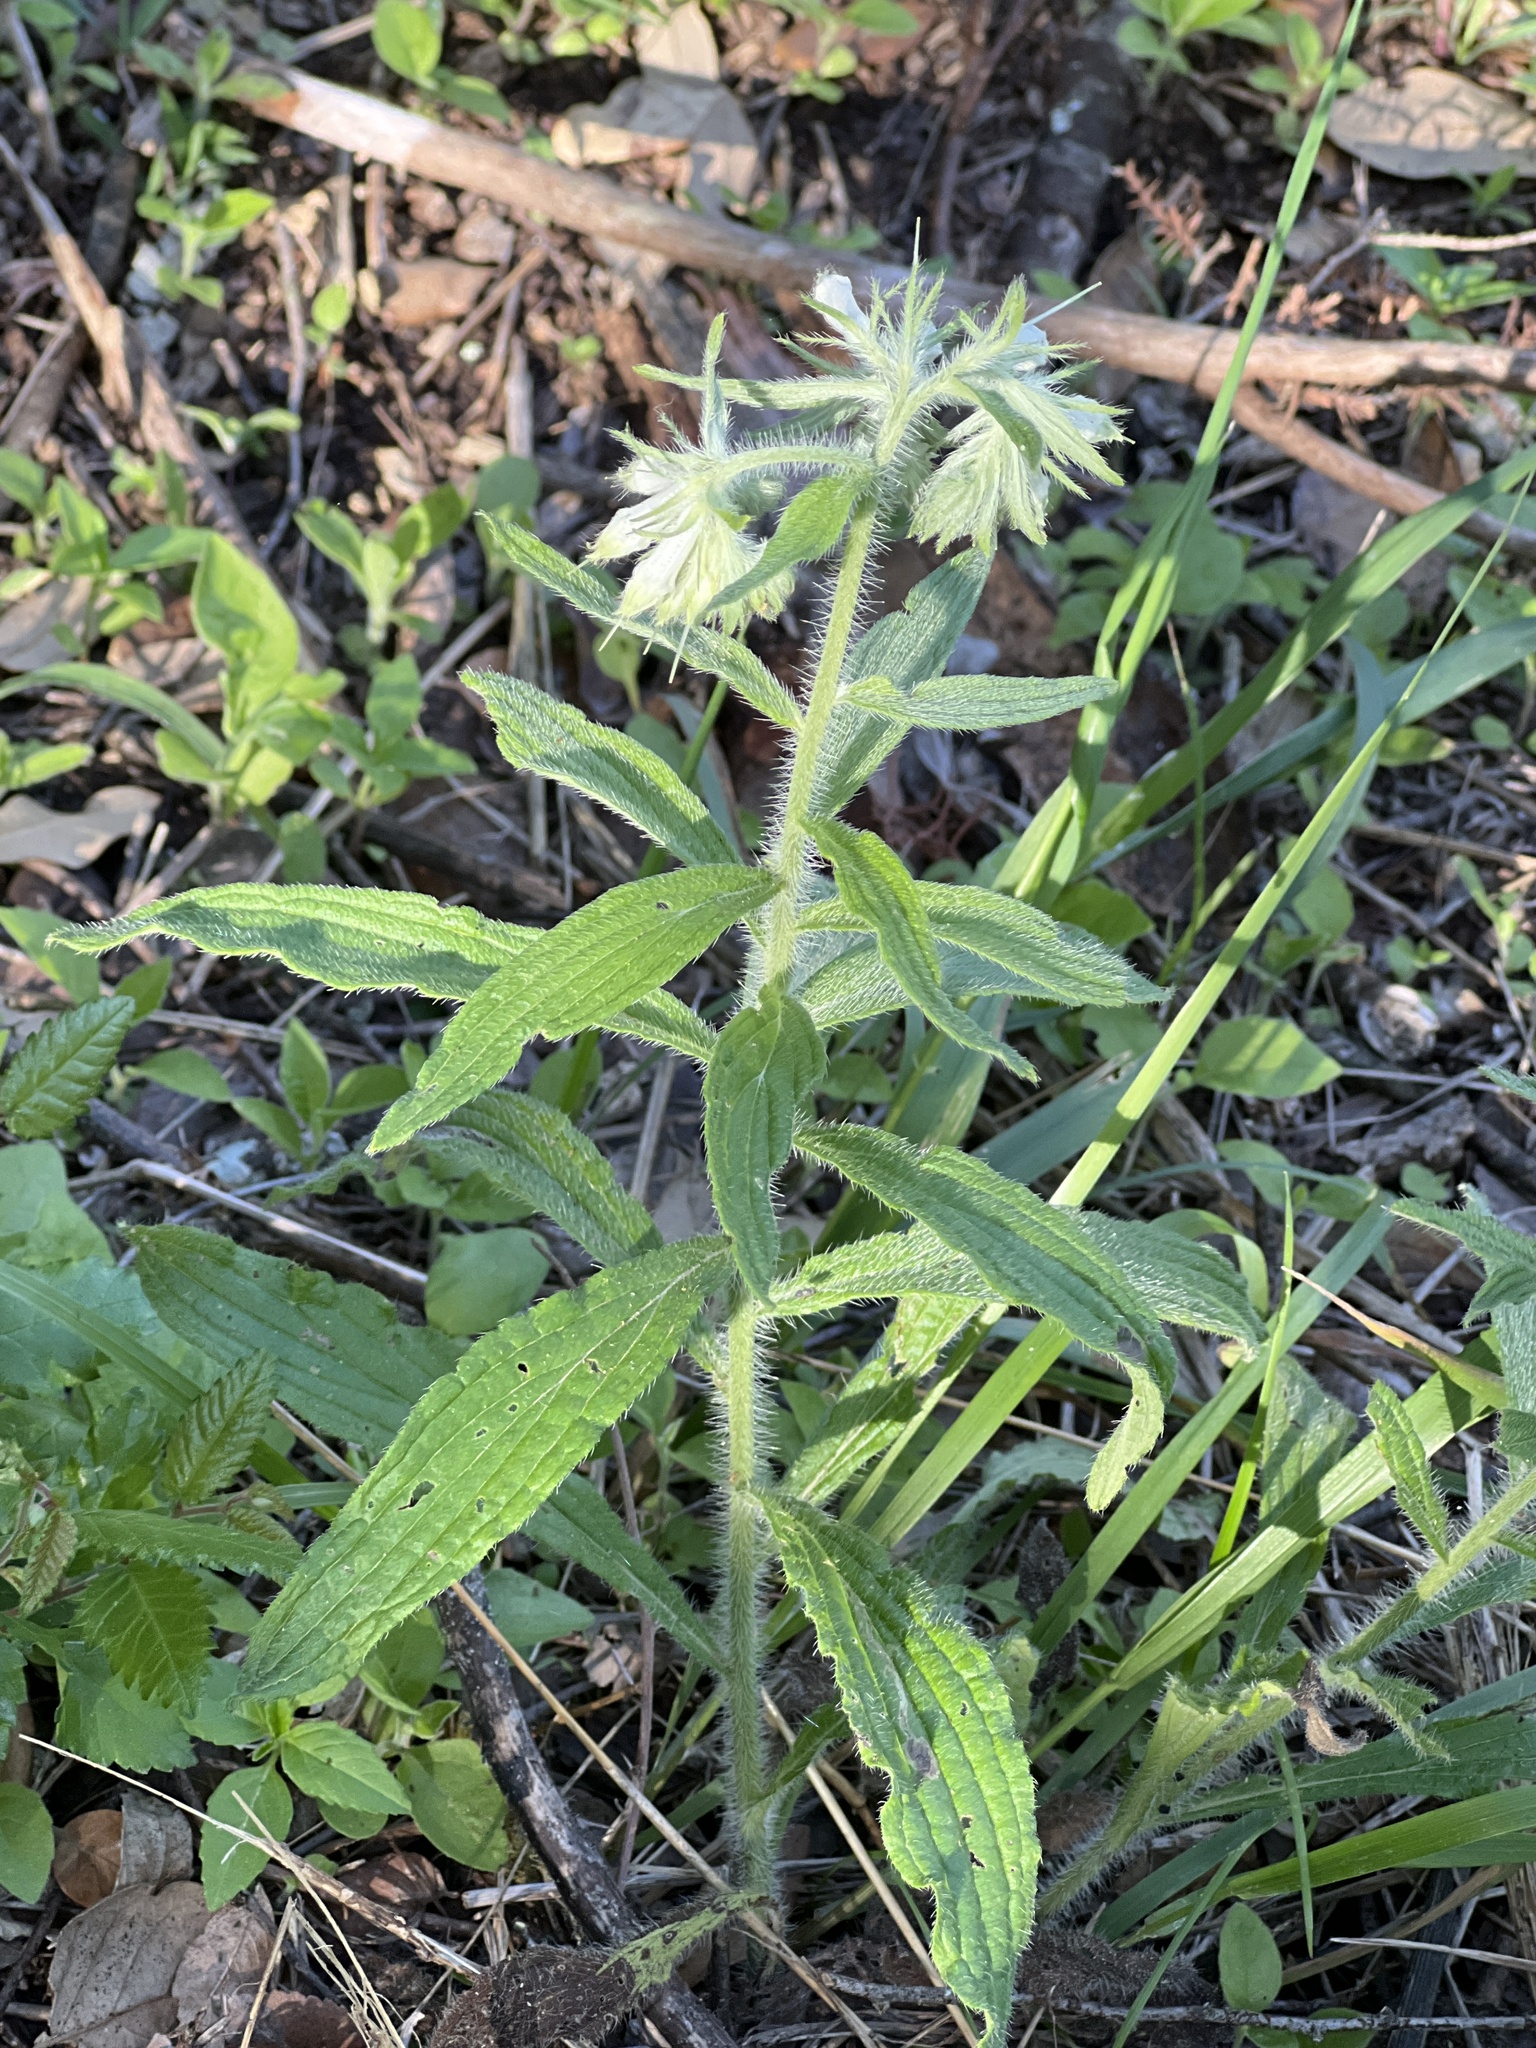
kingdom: Plantae
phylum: Tracheophyta
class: Magnoliopsida
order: Boraginales
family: Boraginaceae
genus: Lithospermum
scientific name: Lithospermum caroliniense
